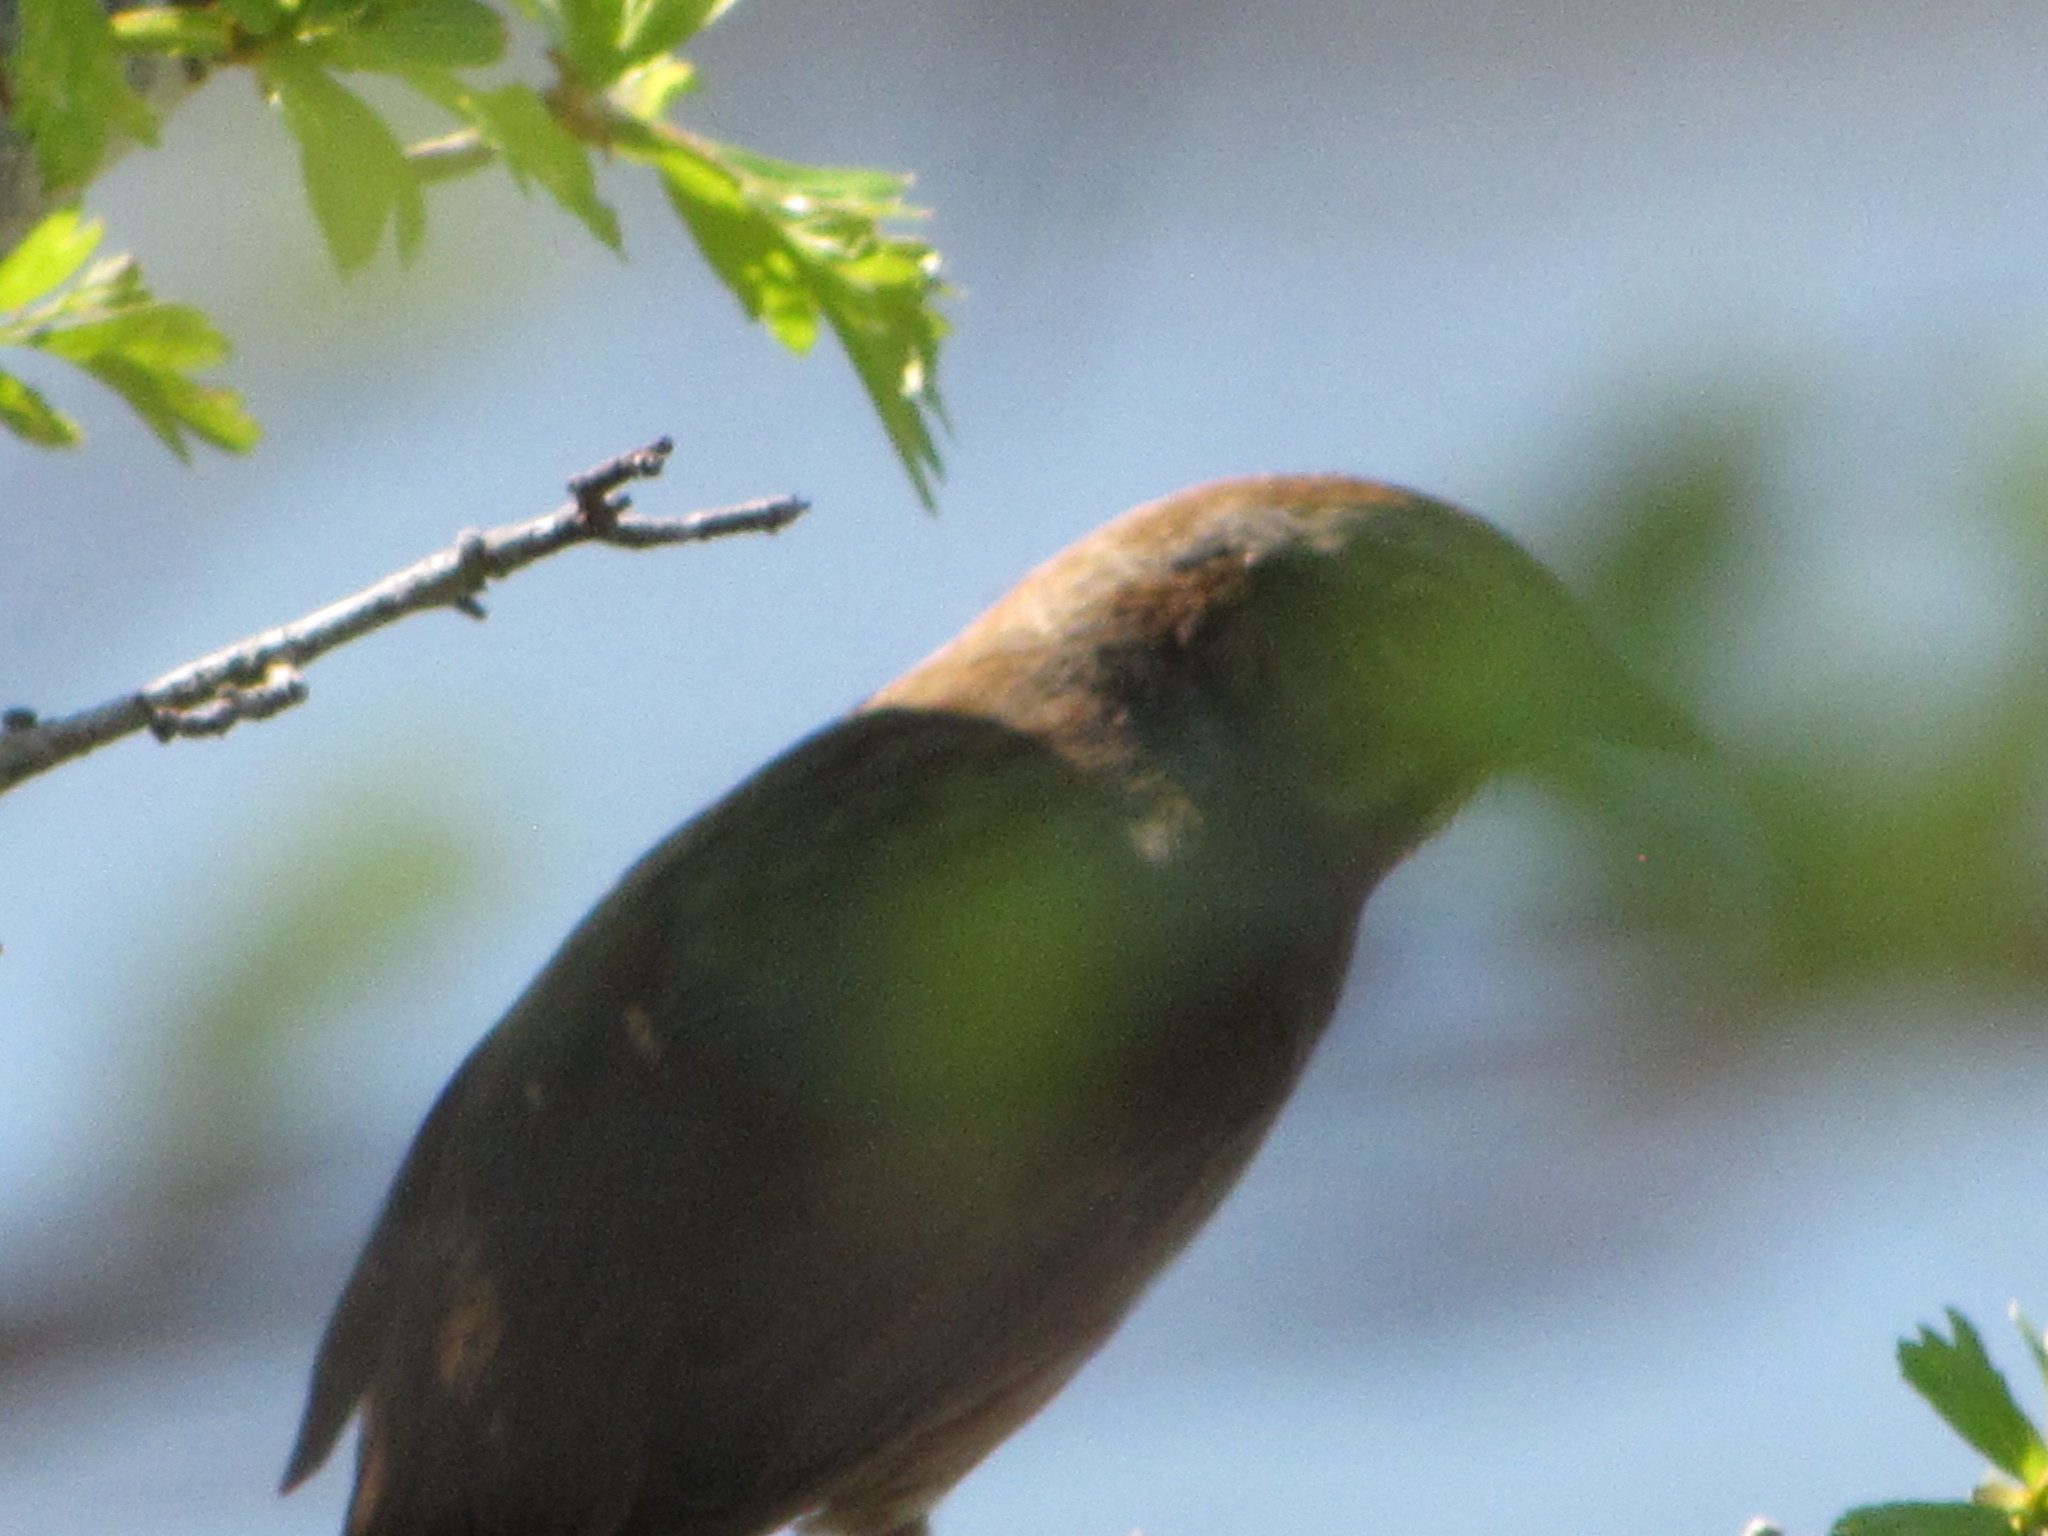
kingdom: Animalia
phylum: Chordata
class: Aves
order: Passeriformes
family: Passerellidae
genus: Melospiza
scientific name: Melospiza melodia
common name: Song sparrow
